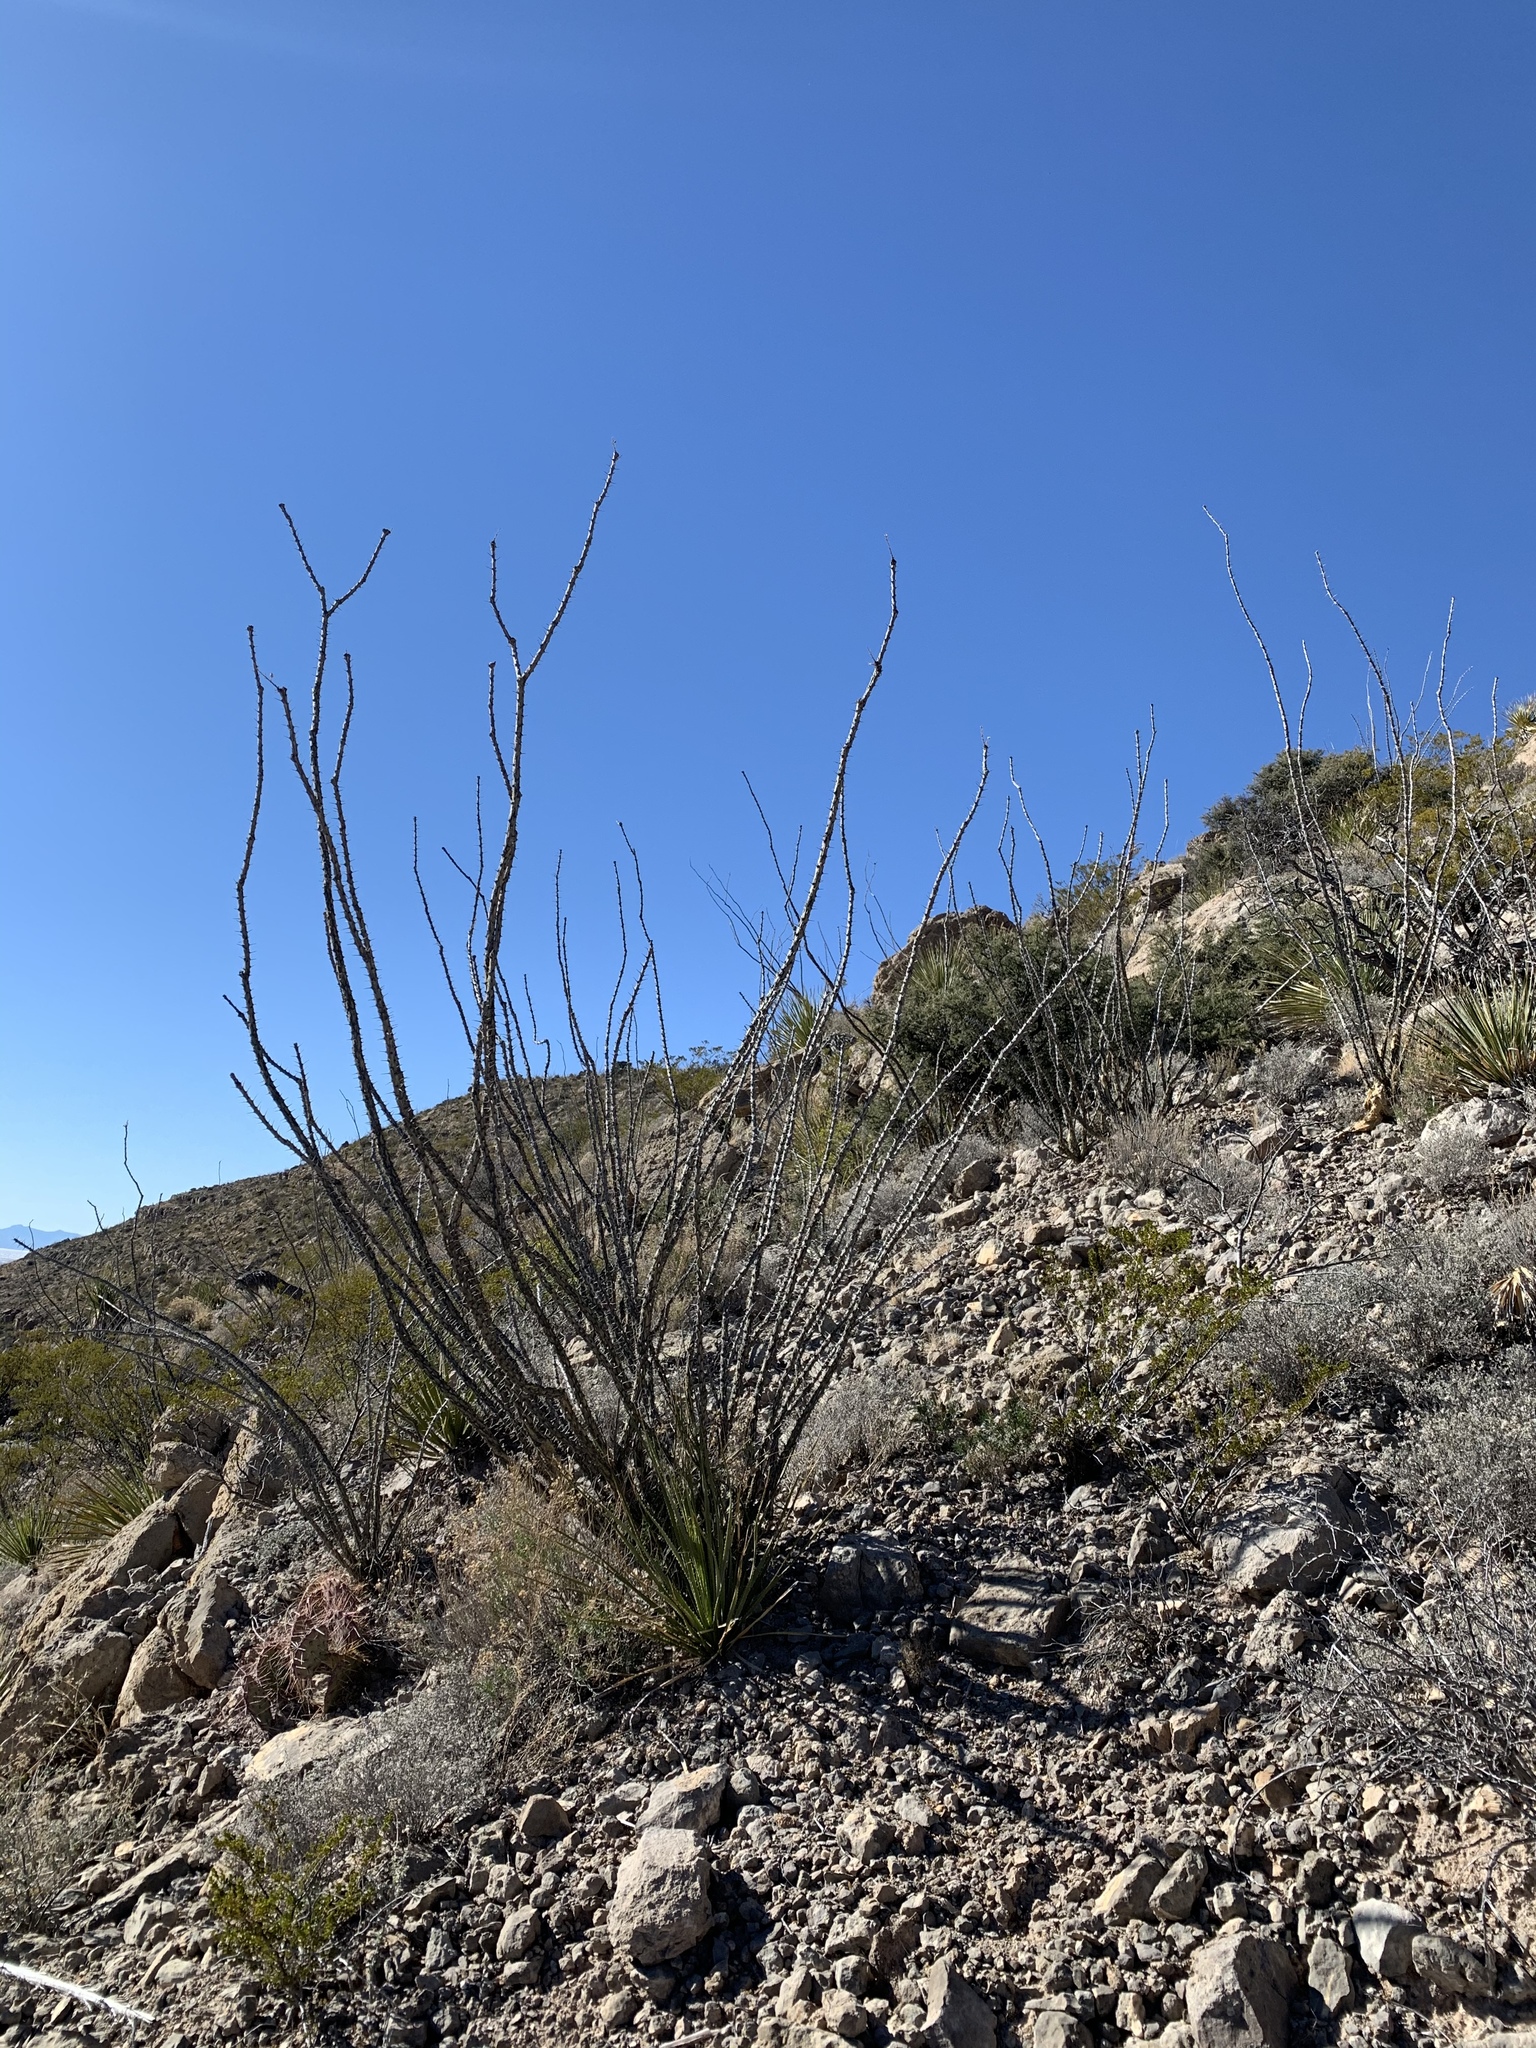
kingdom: Plantae
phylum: Tracheophyta
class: Magnoliopsida
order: Ericales
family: Fouquieriaceae
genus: Fouquieria
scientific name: Fouquieria splendens
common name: Vine-cactus
